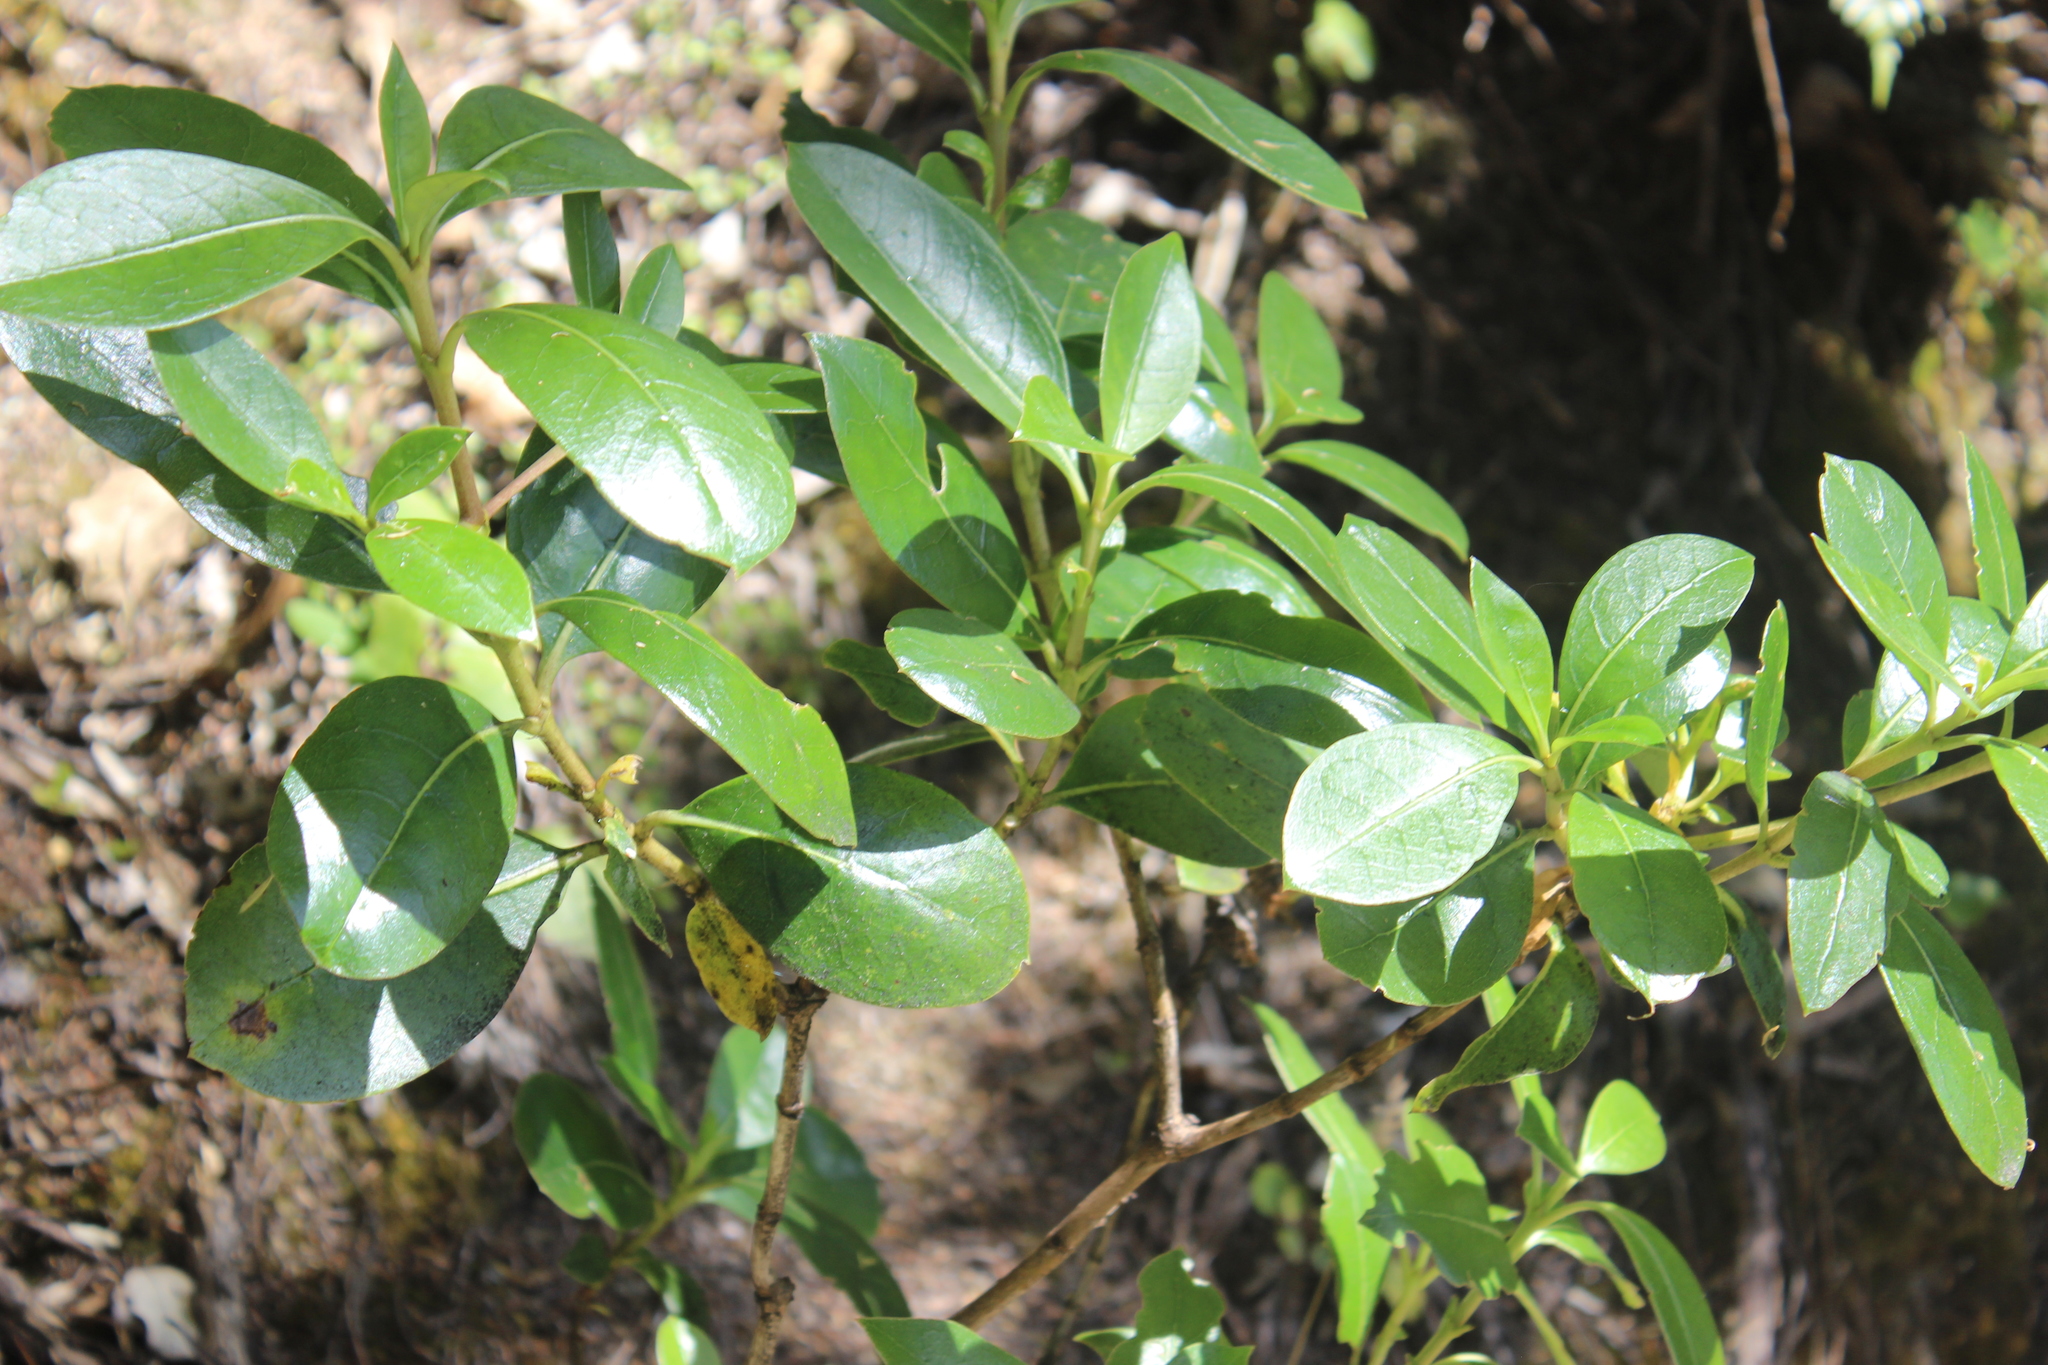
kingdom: Plantae
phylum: Tracheophyta
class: Magnoliopsida
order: Gentianales
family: Rubiaceae
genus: Coprosma
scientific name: Coprosma lucida
